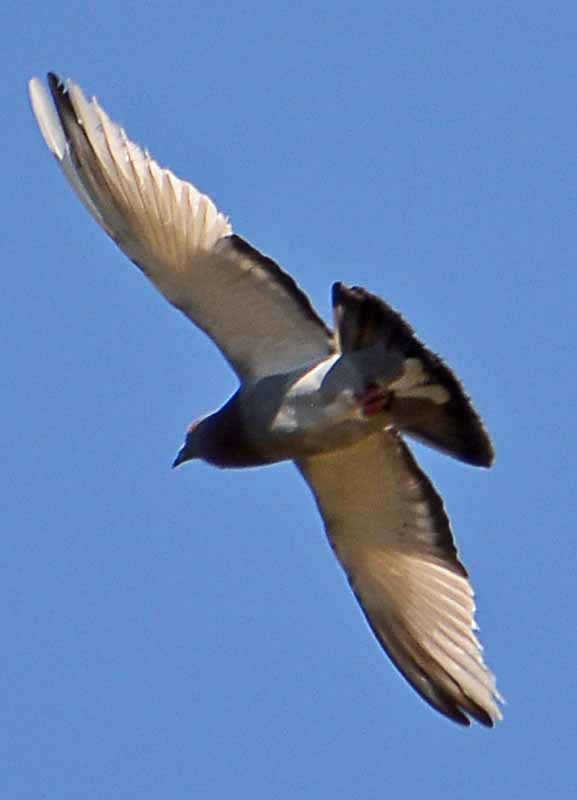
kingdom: Animalia
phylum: Chordata
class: Aves
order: Columbiformes
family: Columbidae
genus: Columba
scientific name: Columba livia
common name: Rock pigeon
